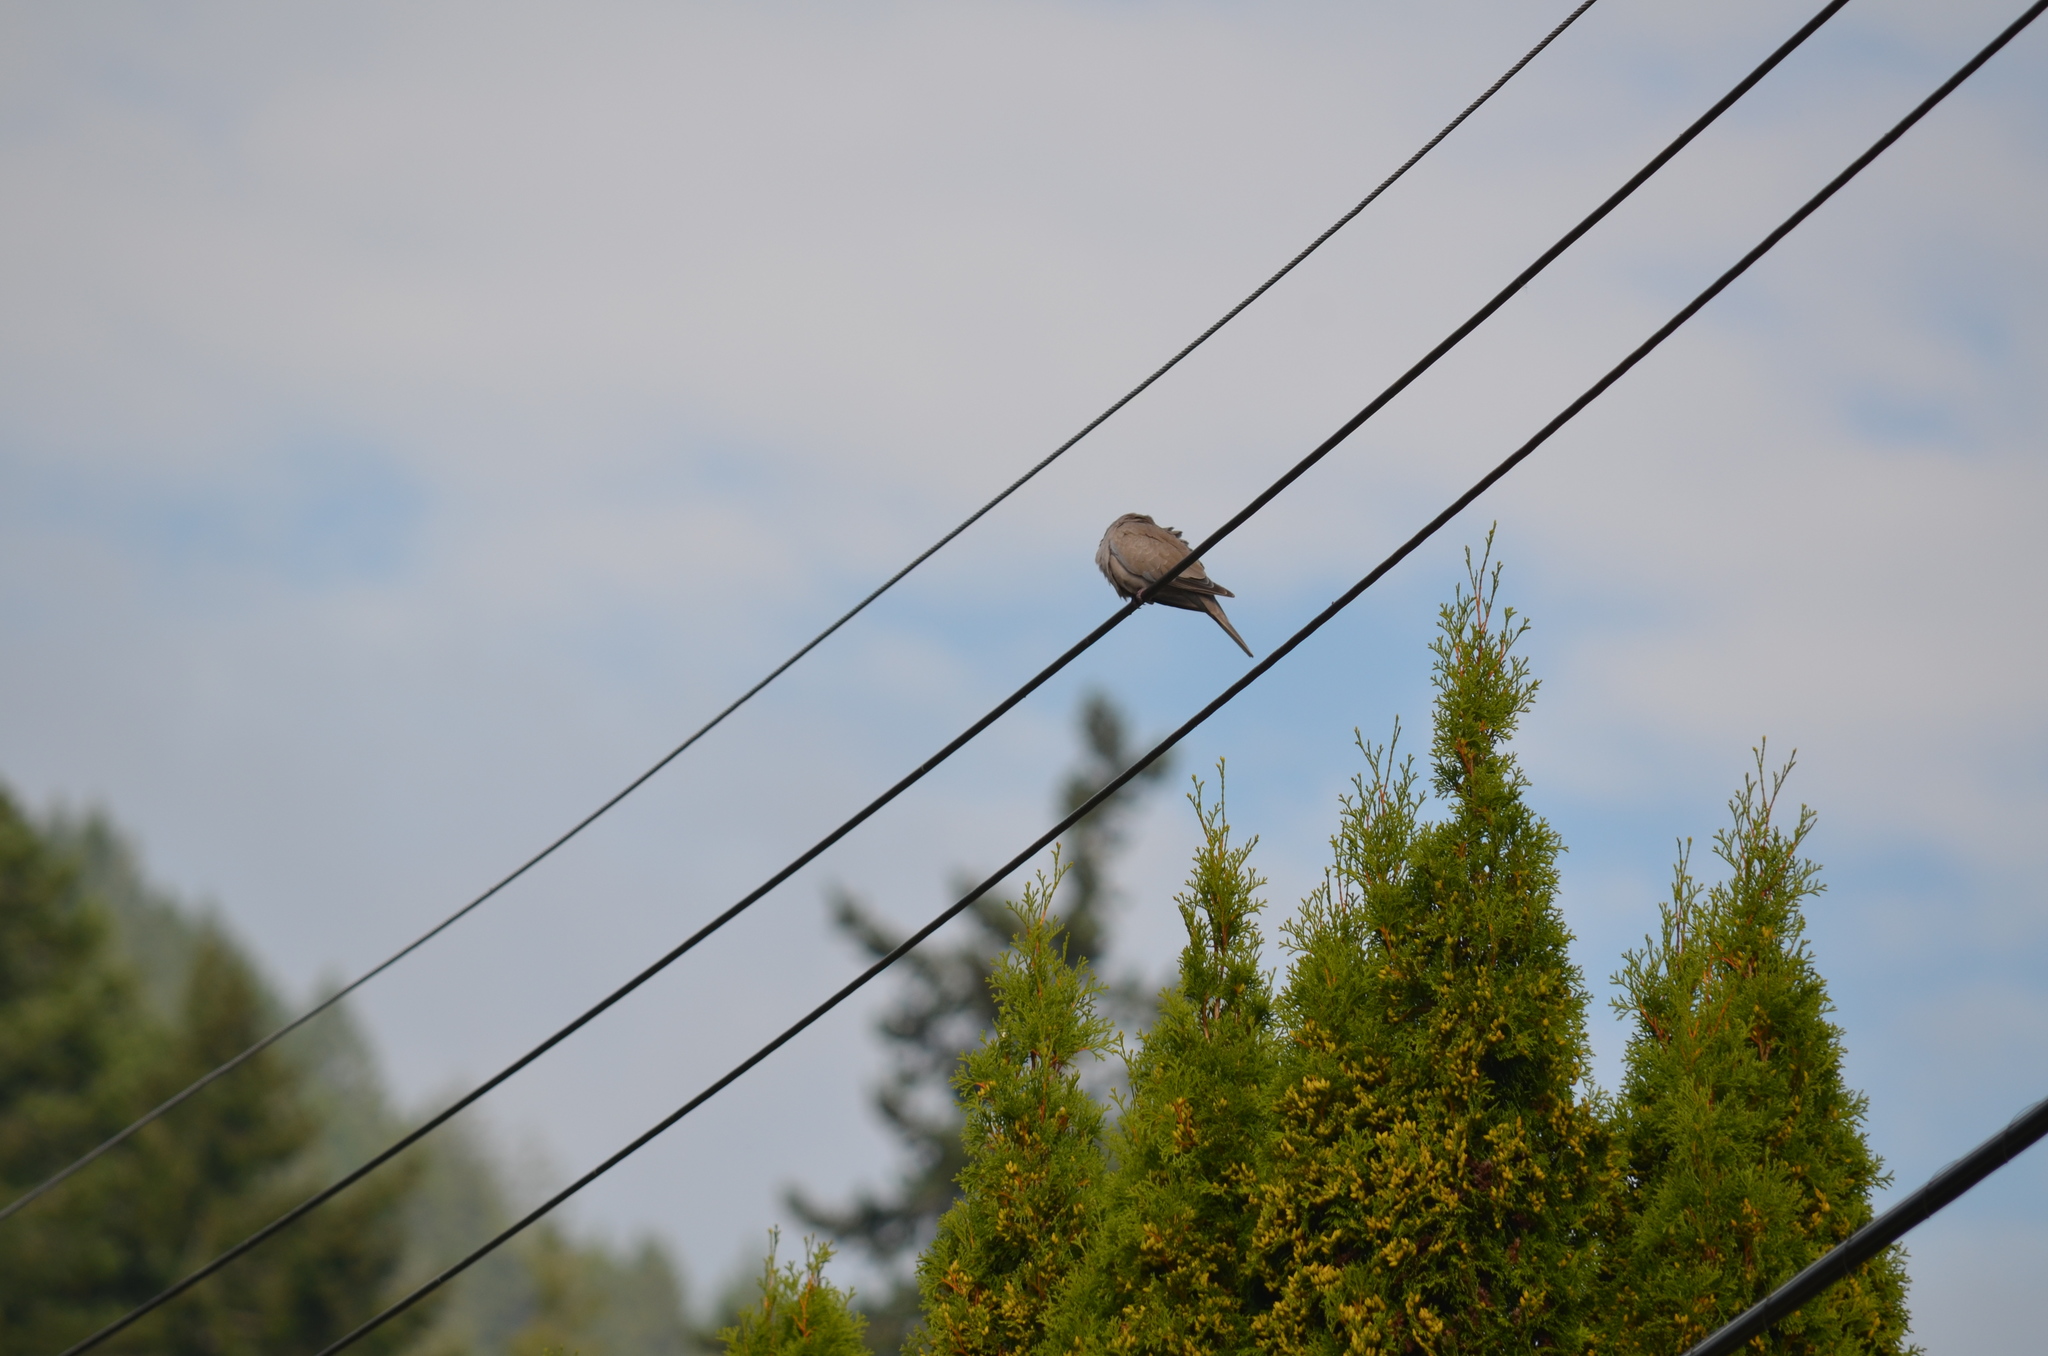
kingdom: Animalia
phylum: Chordata
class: Aves
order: Columbiformes
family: Columbidae
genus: Streptopelia
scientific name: Streptopelia decaocto
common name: Eurasian collared dove
